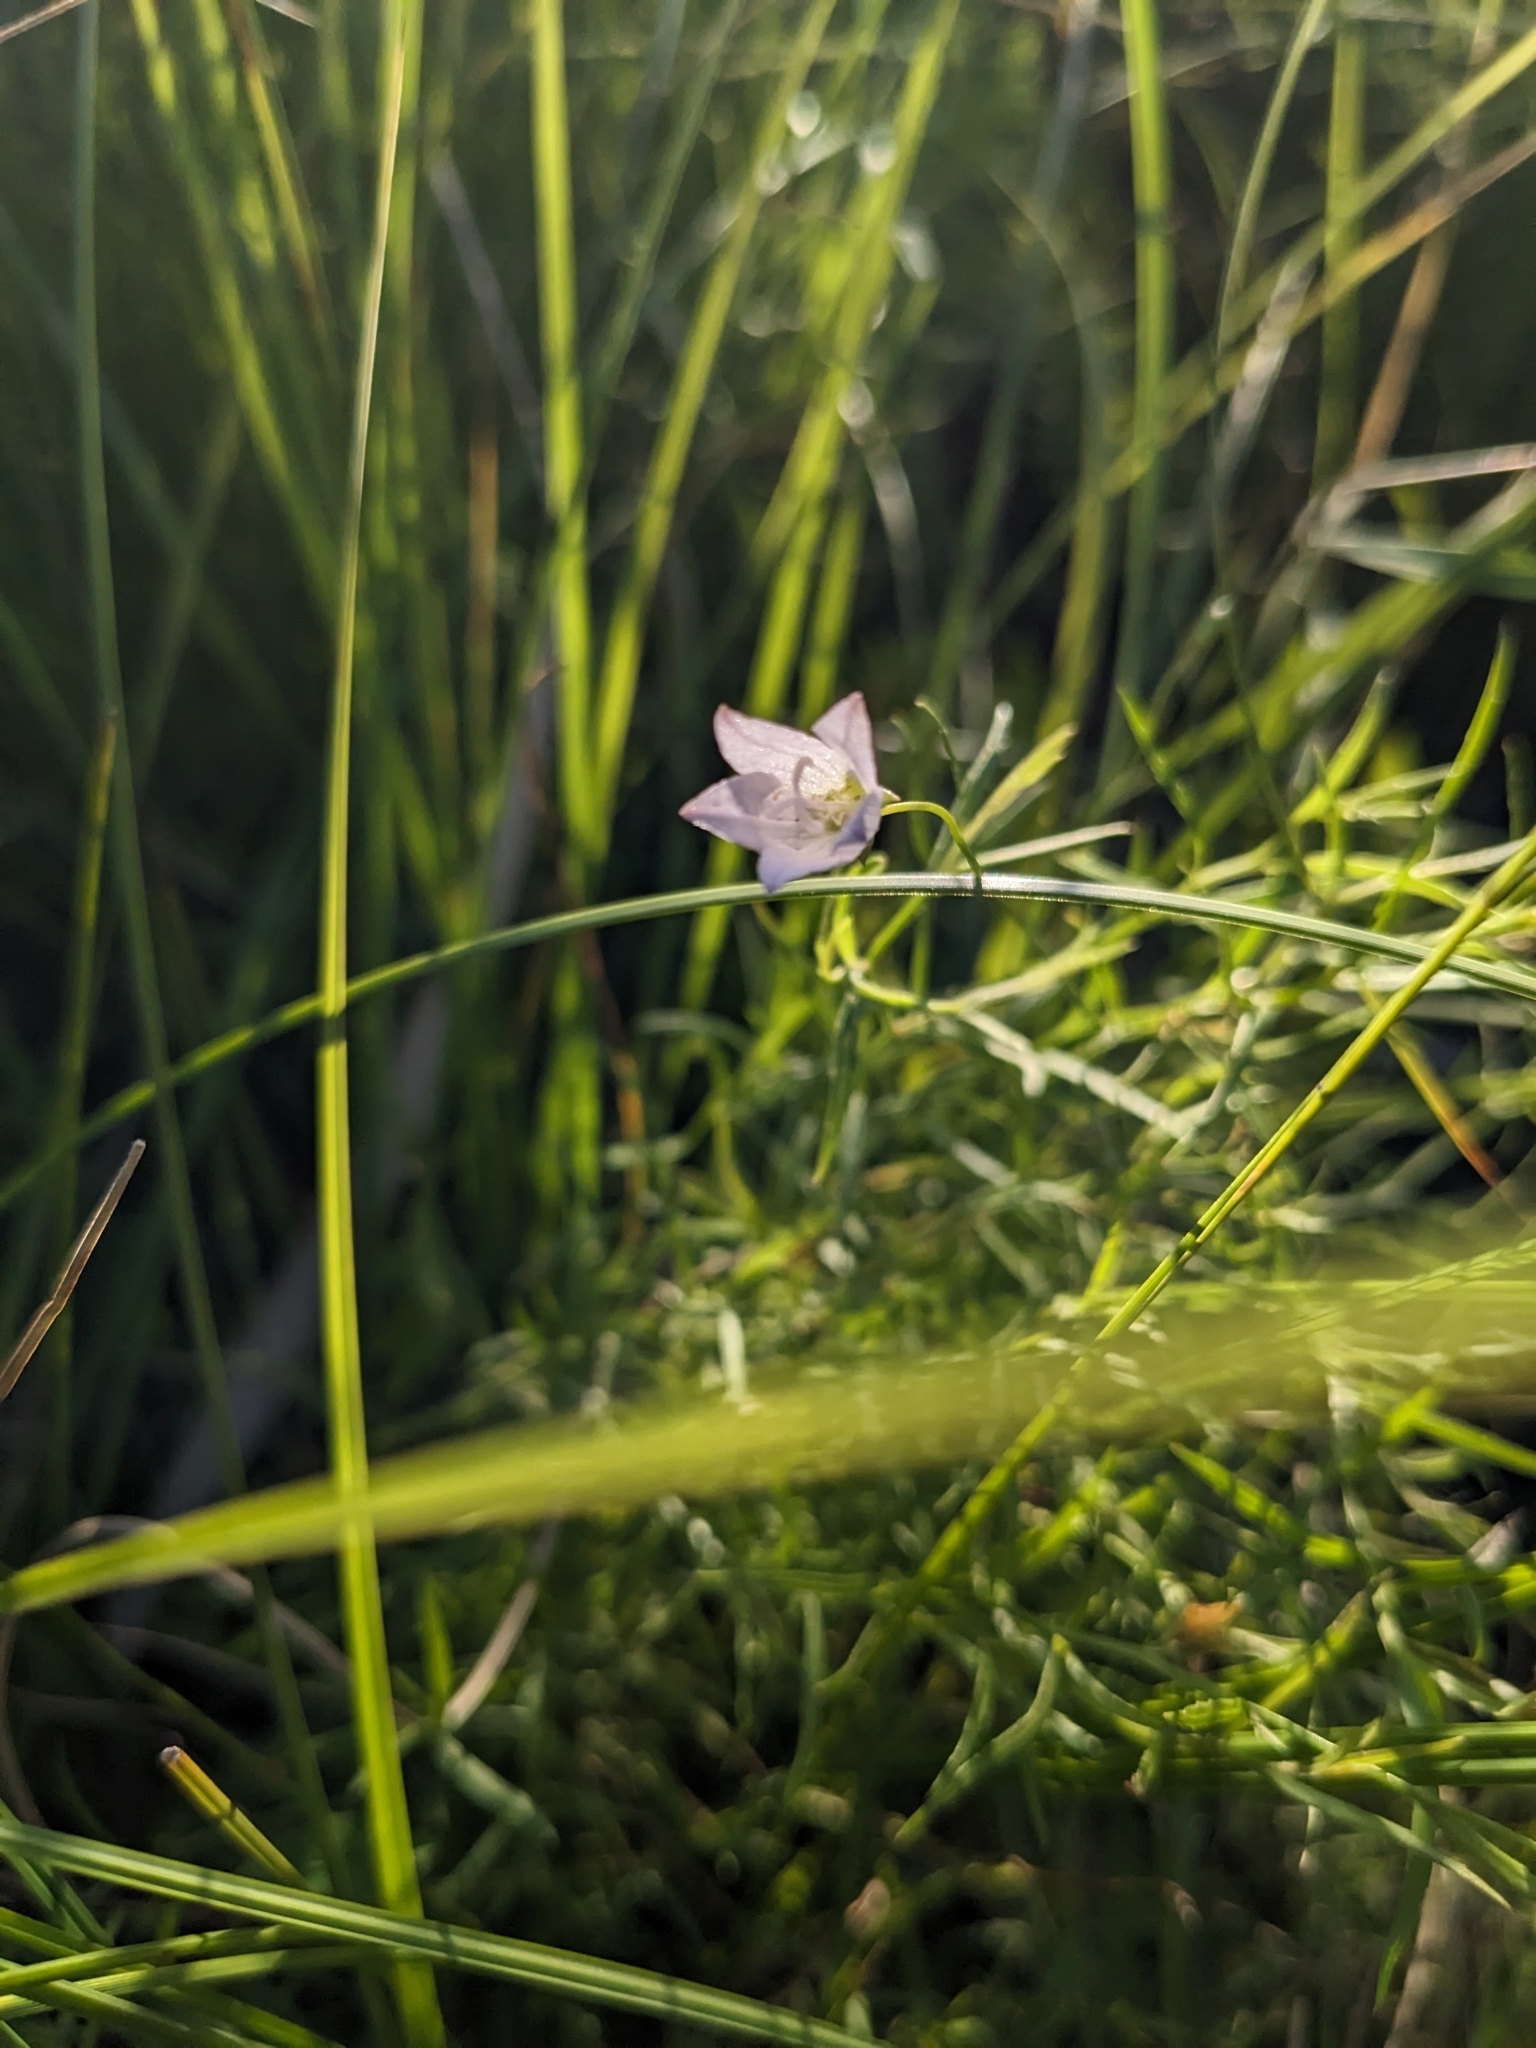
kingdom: Plantae
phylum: Tracheophyta
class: Magnoliopsida
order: Asterales
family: Campanulaceae
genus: Palustricodon
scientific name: Palustricodon aparinoides
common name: Bedstraw bellflower
